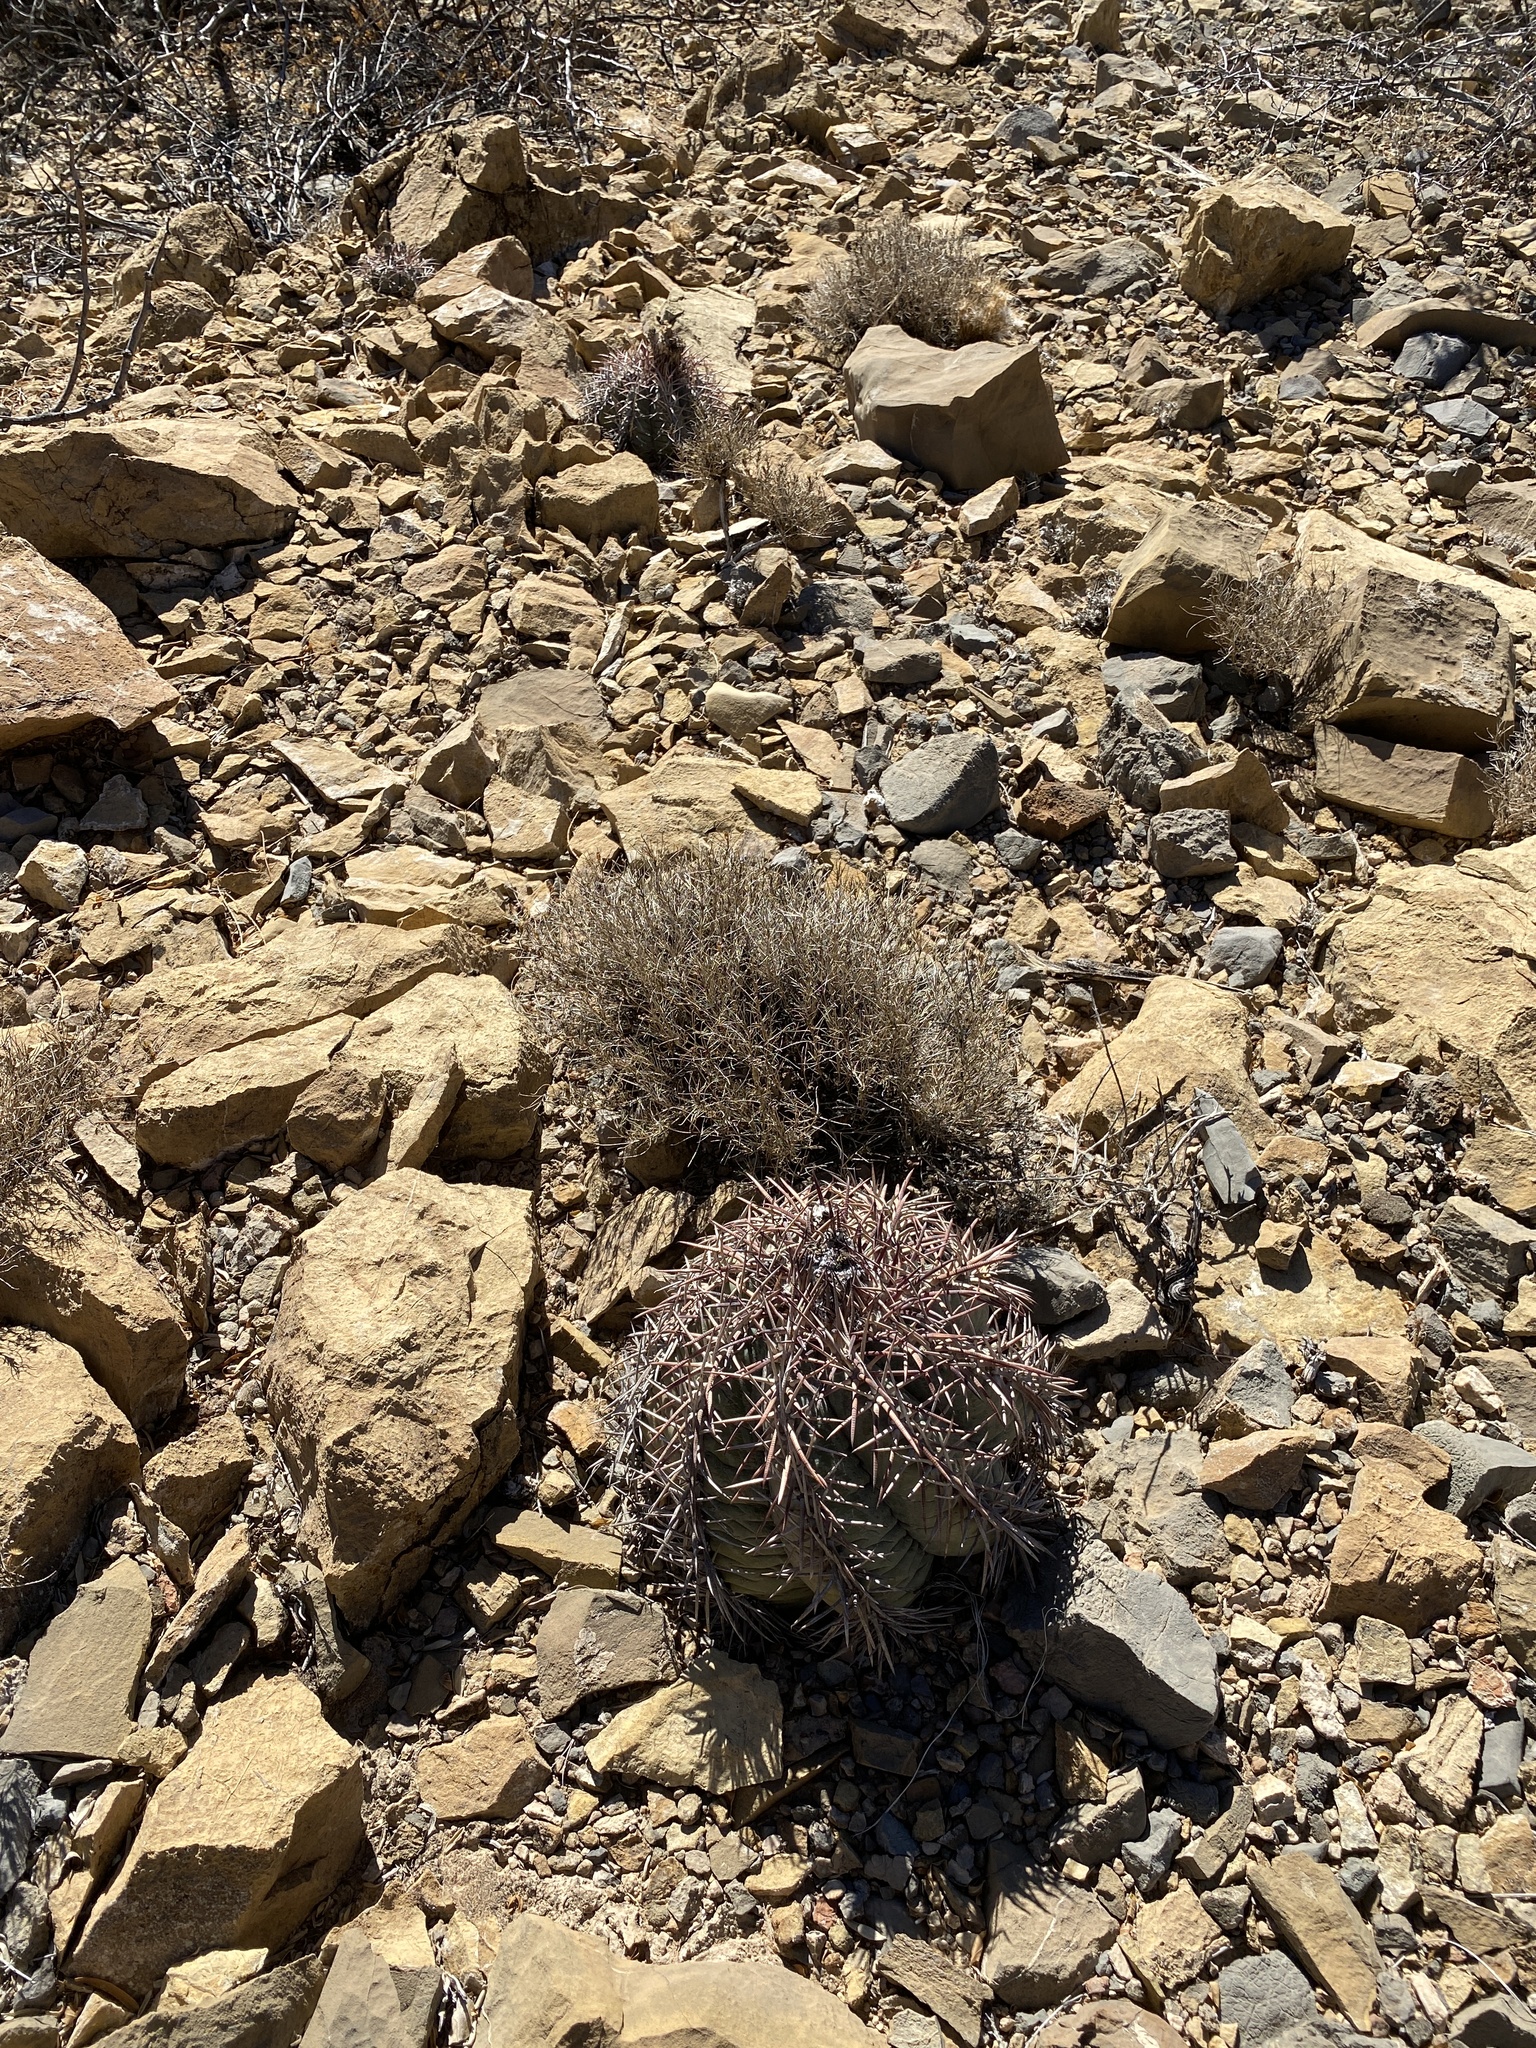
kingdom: Plantae
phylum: Tracheophyta
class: Magnoliopsida
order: Caryophyllales
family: Cactaceae
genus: Echinocactus
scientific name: Echinocactus horizonthalonius
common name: Devilshead
